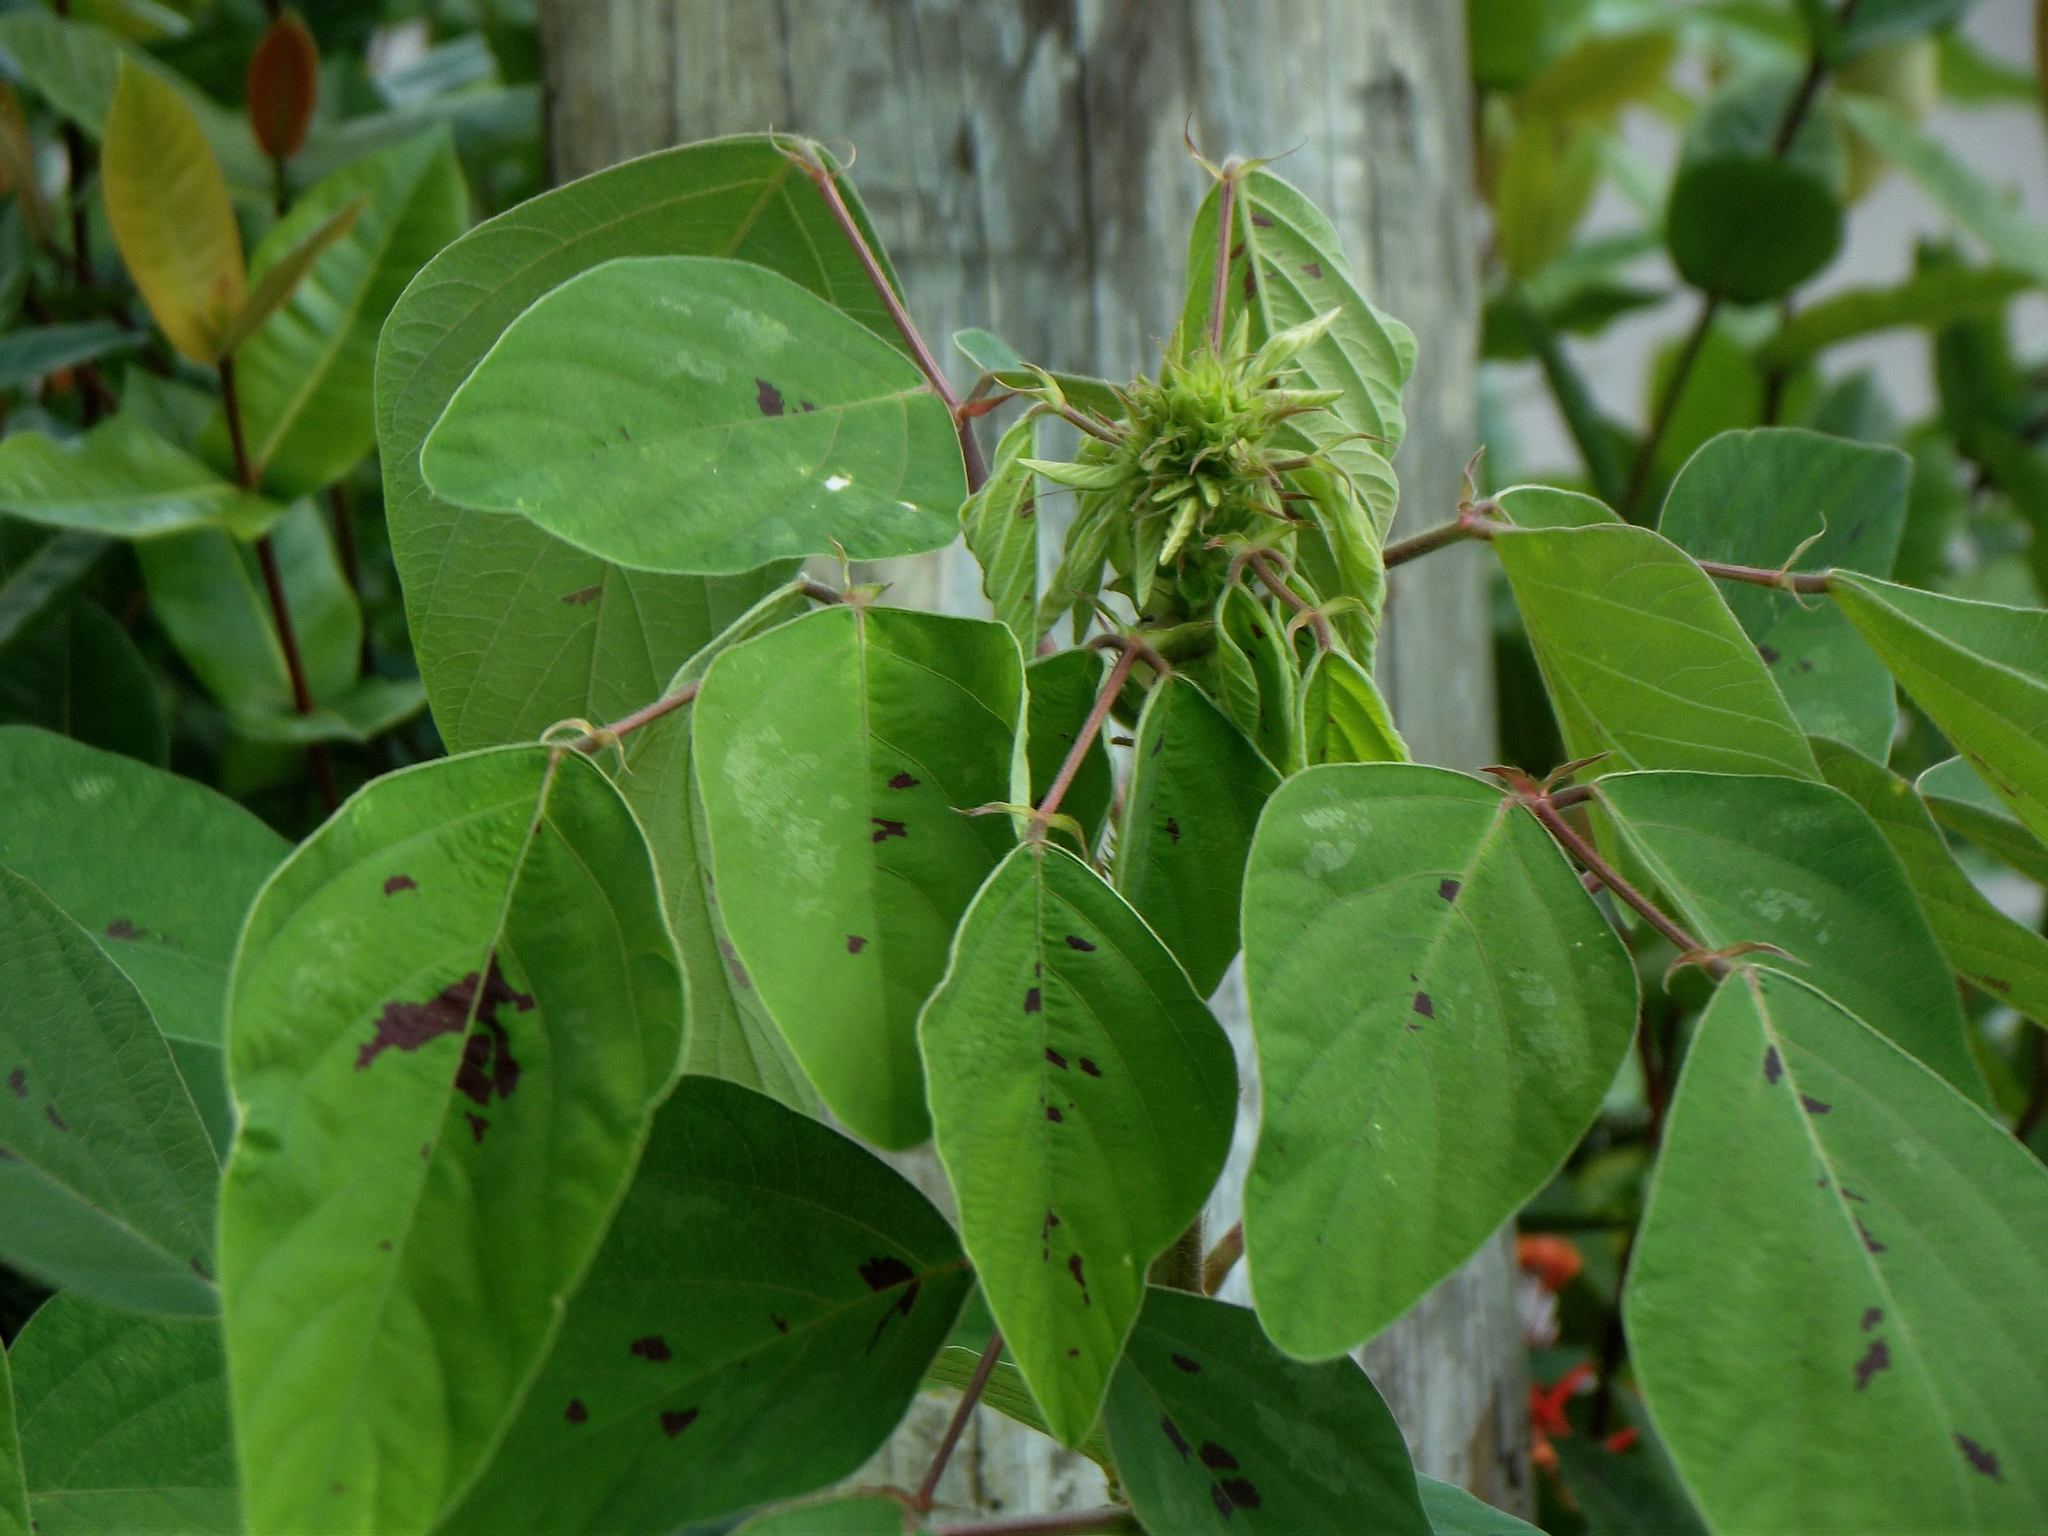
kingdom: Plantae
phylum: Tracheophyta
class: Magnoliopsida
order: Fabales
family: Fabaceae
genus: Desmodium
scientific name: Desmodium tortuosum
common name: Dixie ticktrefoil
